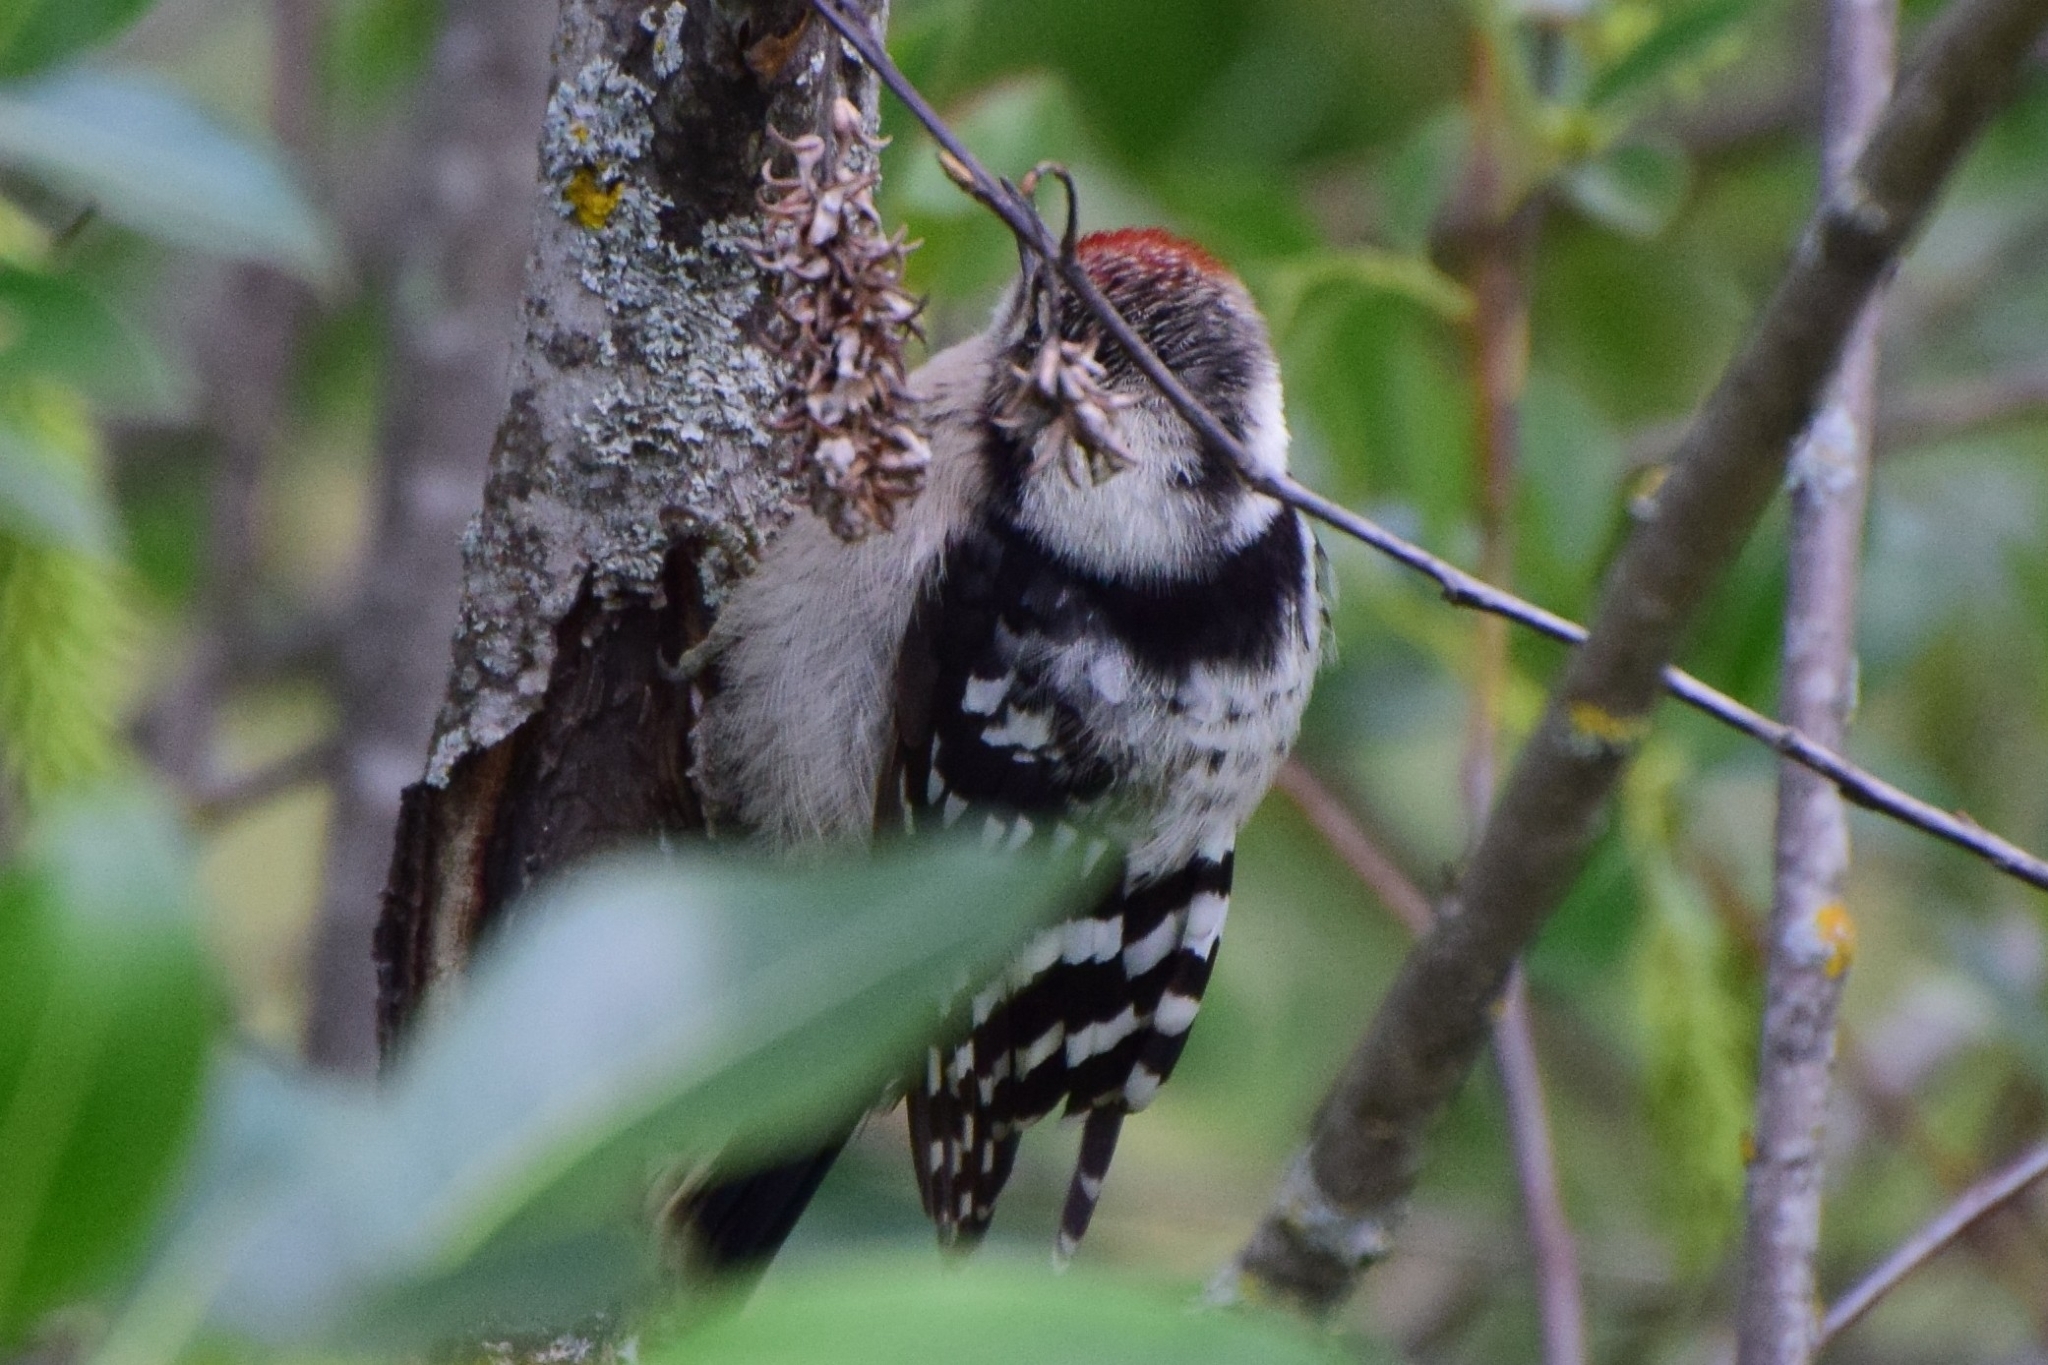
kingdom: Animalia
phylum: Chordata
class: Aves
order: Piciformes
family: Picidae
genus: Dryobates
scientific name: Dryobates minor
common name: Lesser spotted woodpecker
